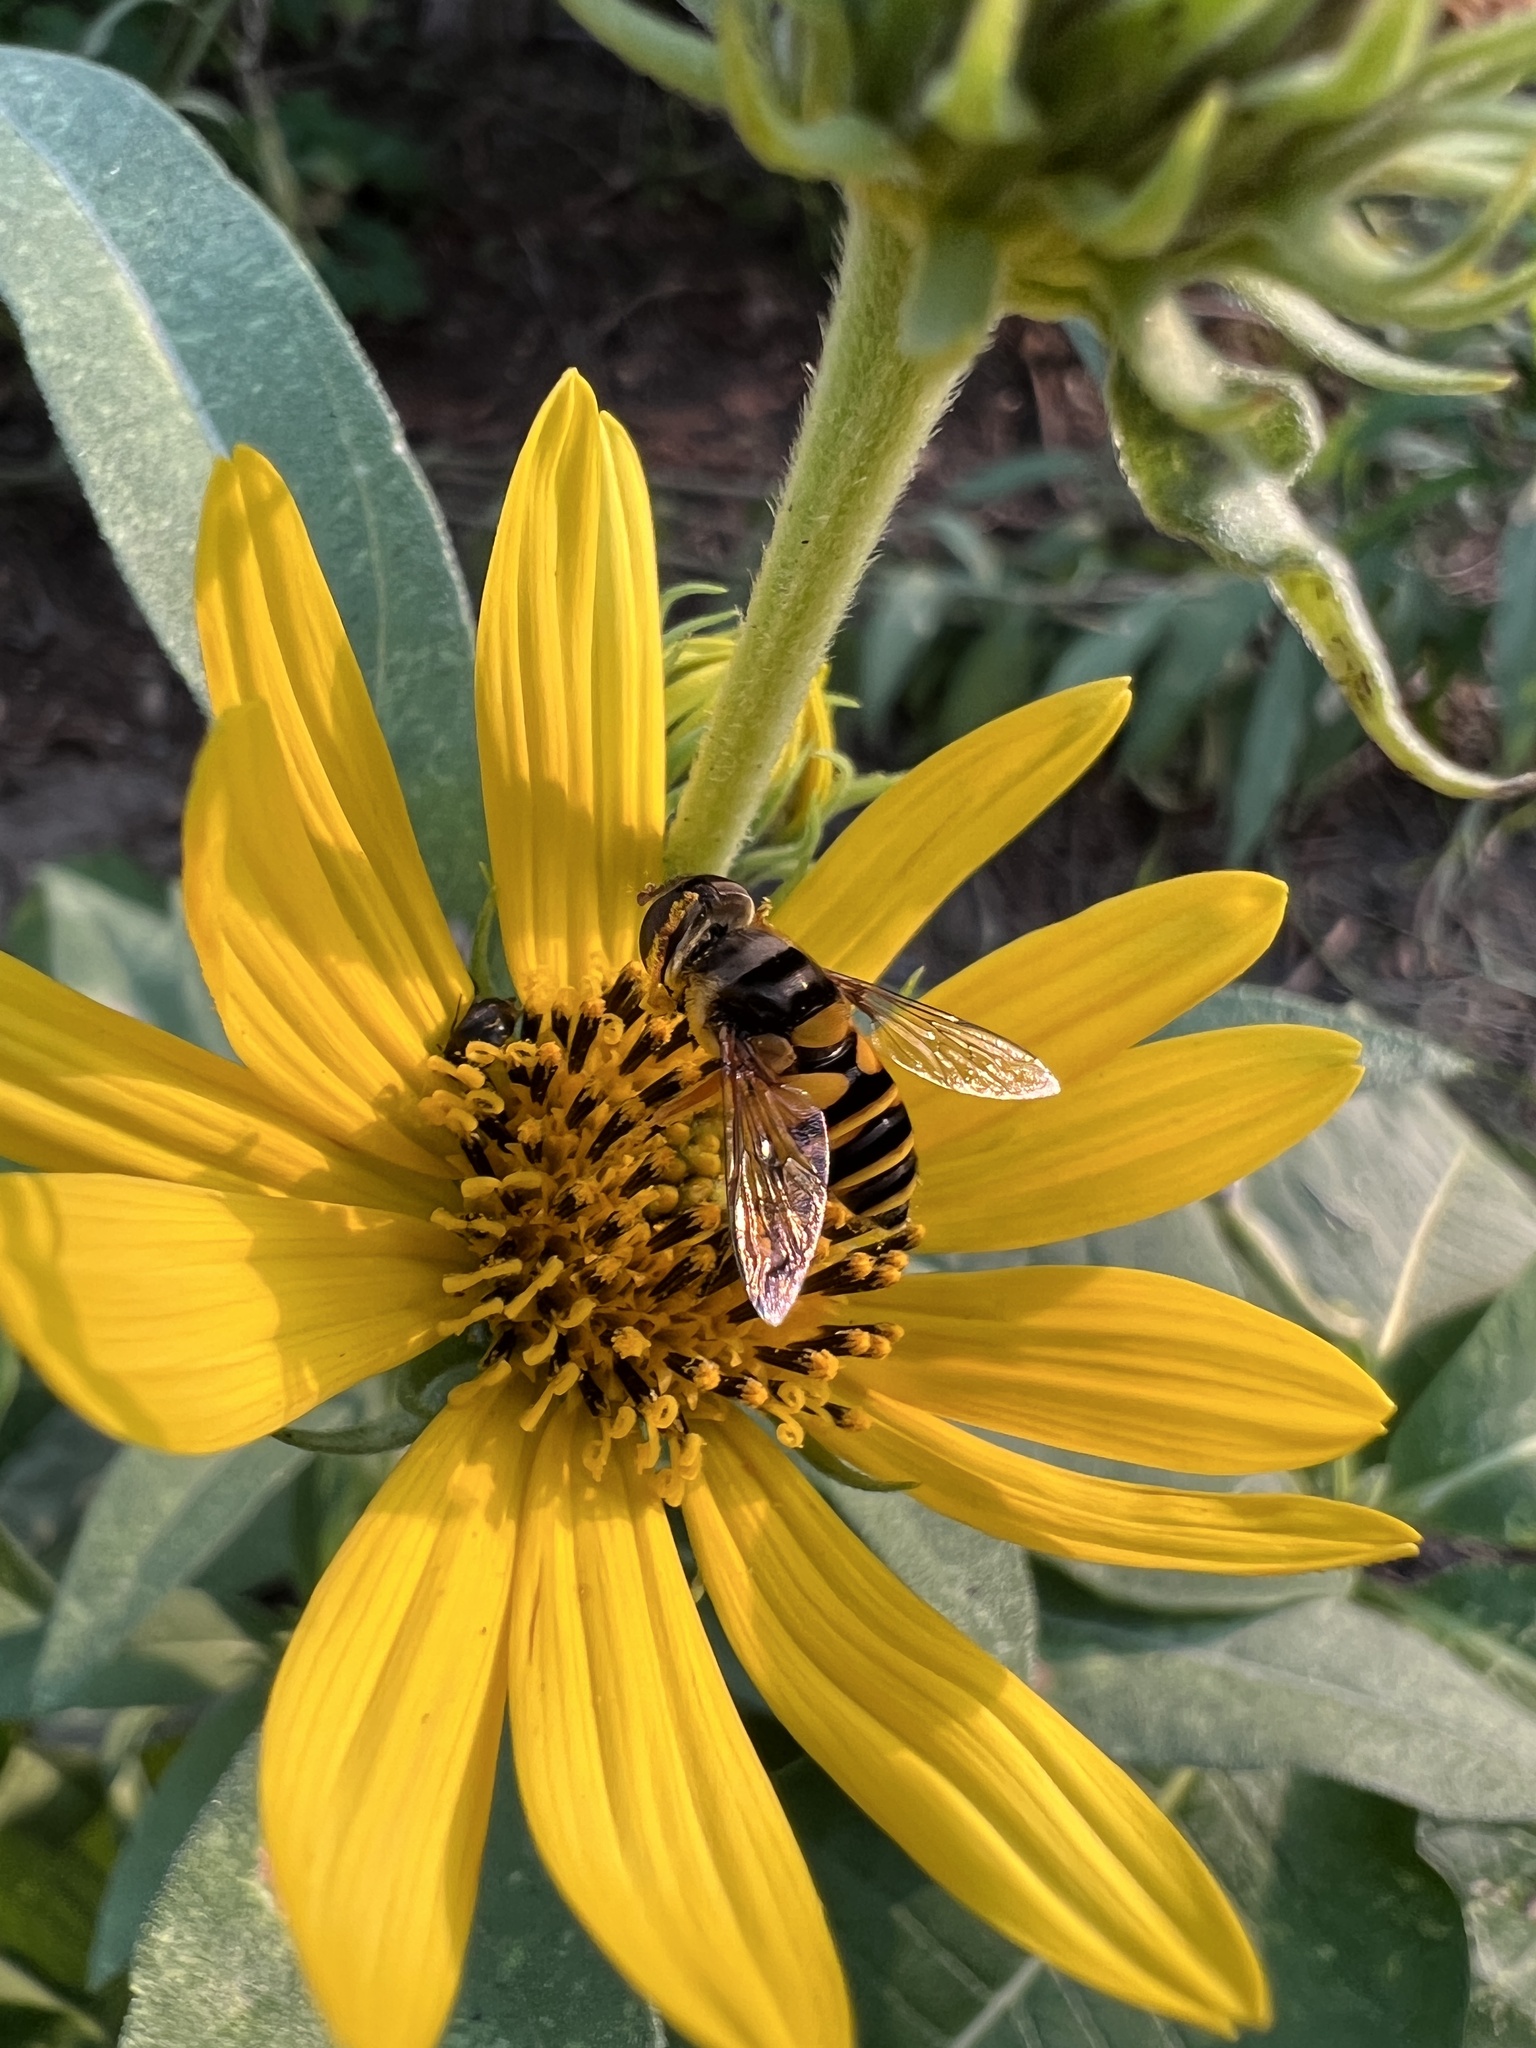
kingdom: Animalia
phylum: Arthropoda
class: Insecta
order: Diptera
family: Syrphidae
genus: Eristalis
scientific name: Eristalis transversa
